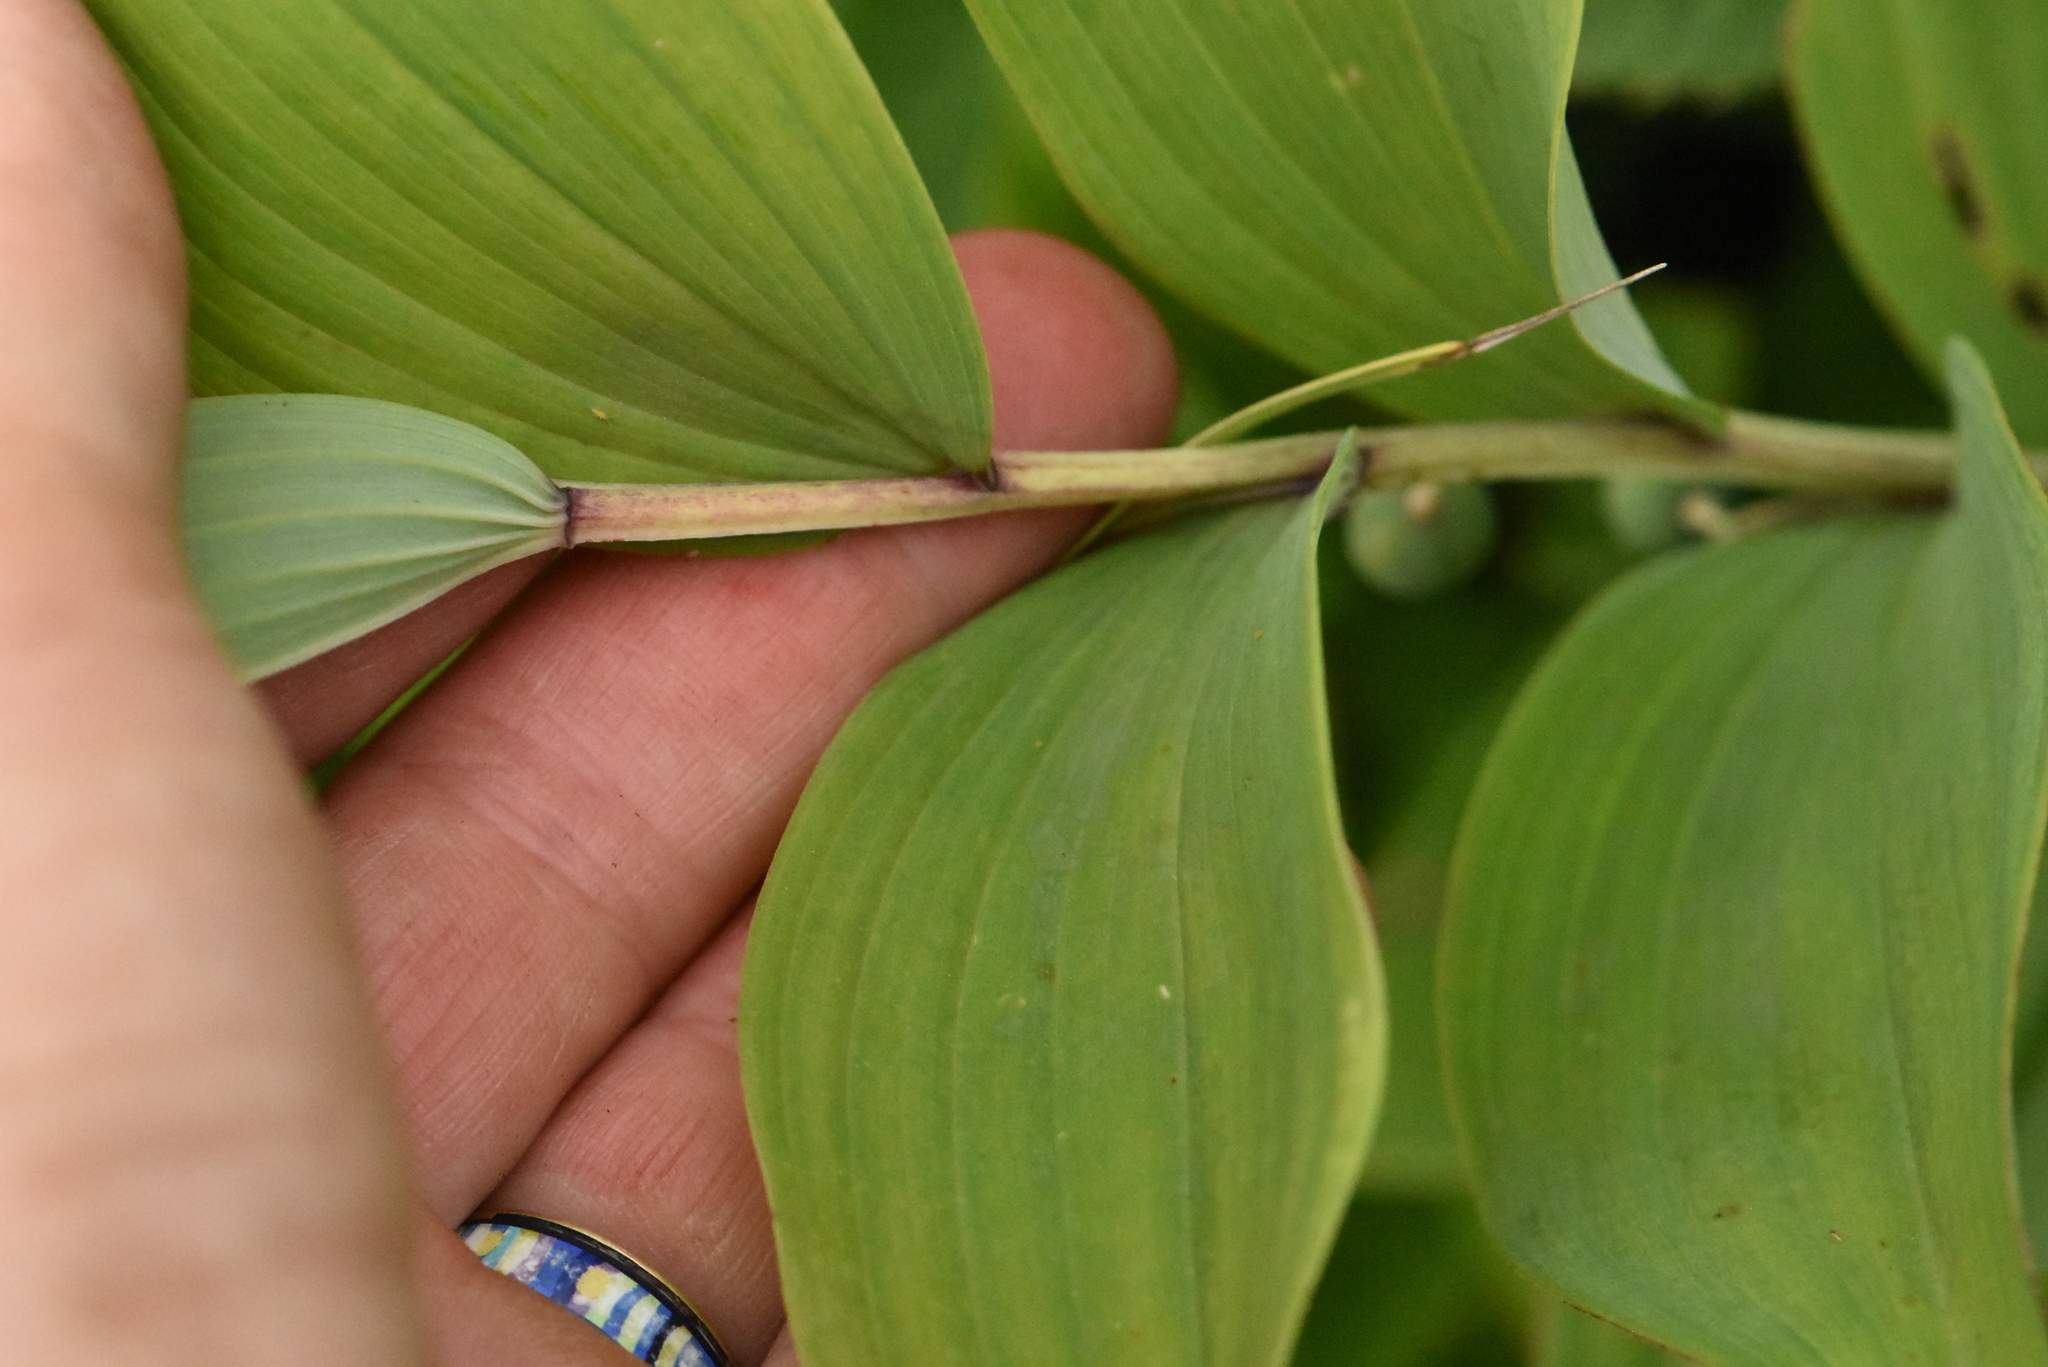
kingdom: Plantae
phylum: Tracheophyta
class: Liliopsida
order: Asparagales
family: Asparagaceae
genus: Polygonatum
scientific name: Polygonatum odoratum
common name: Angular solomon's-seal
